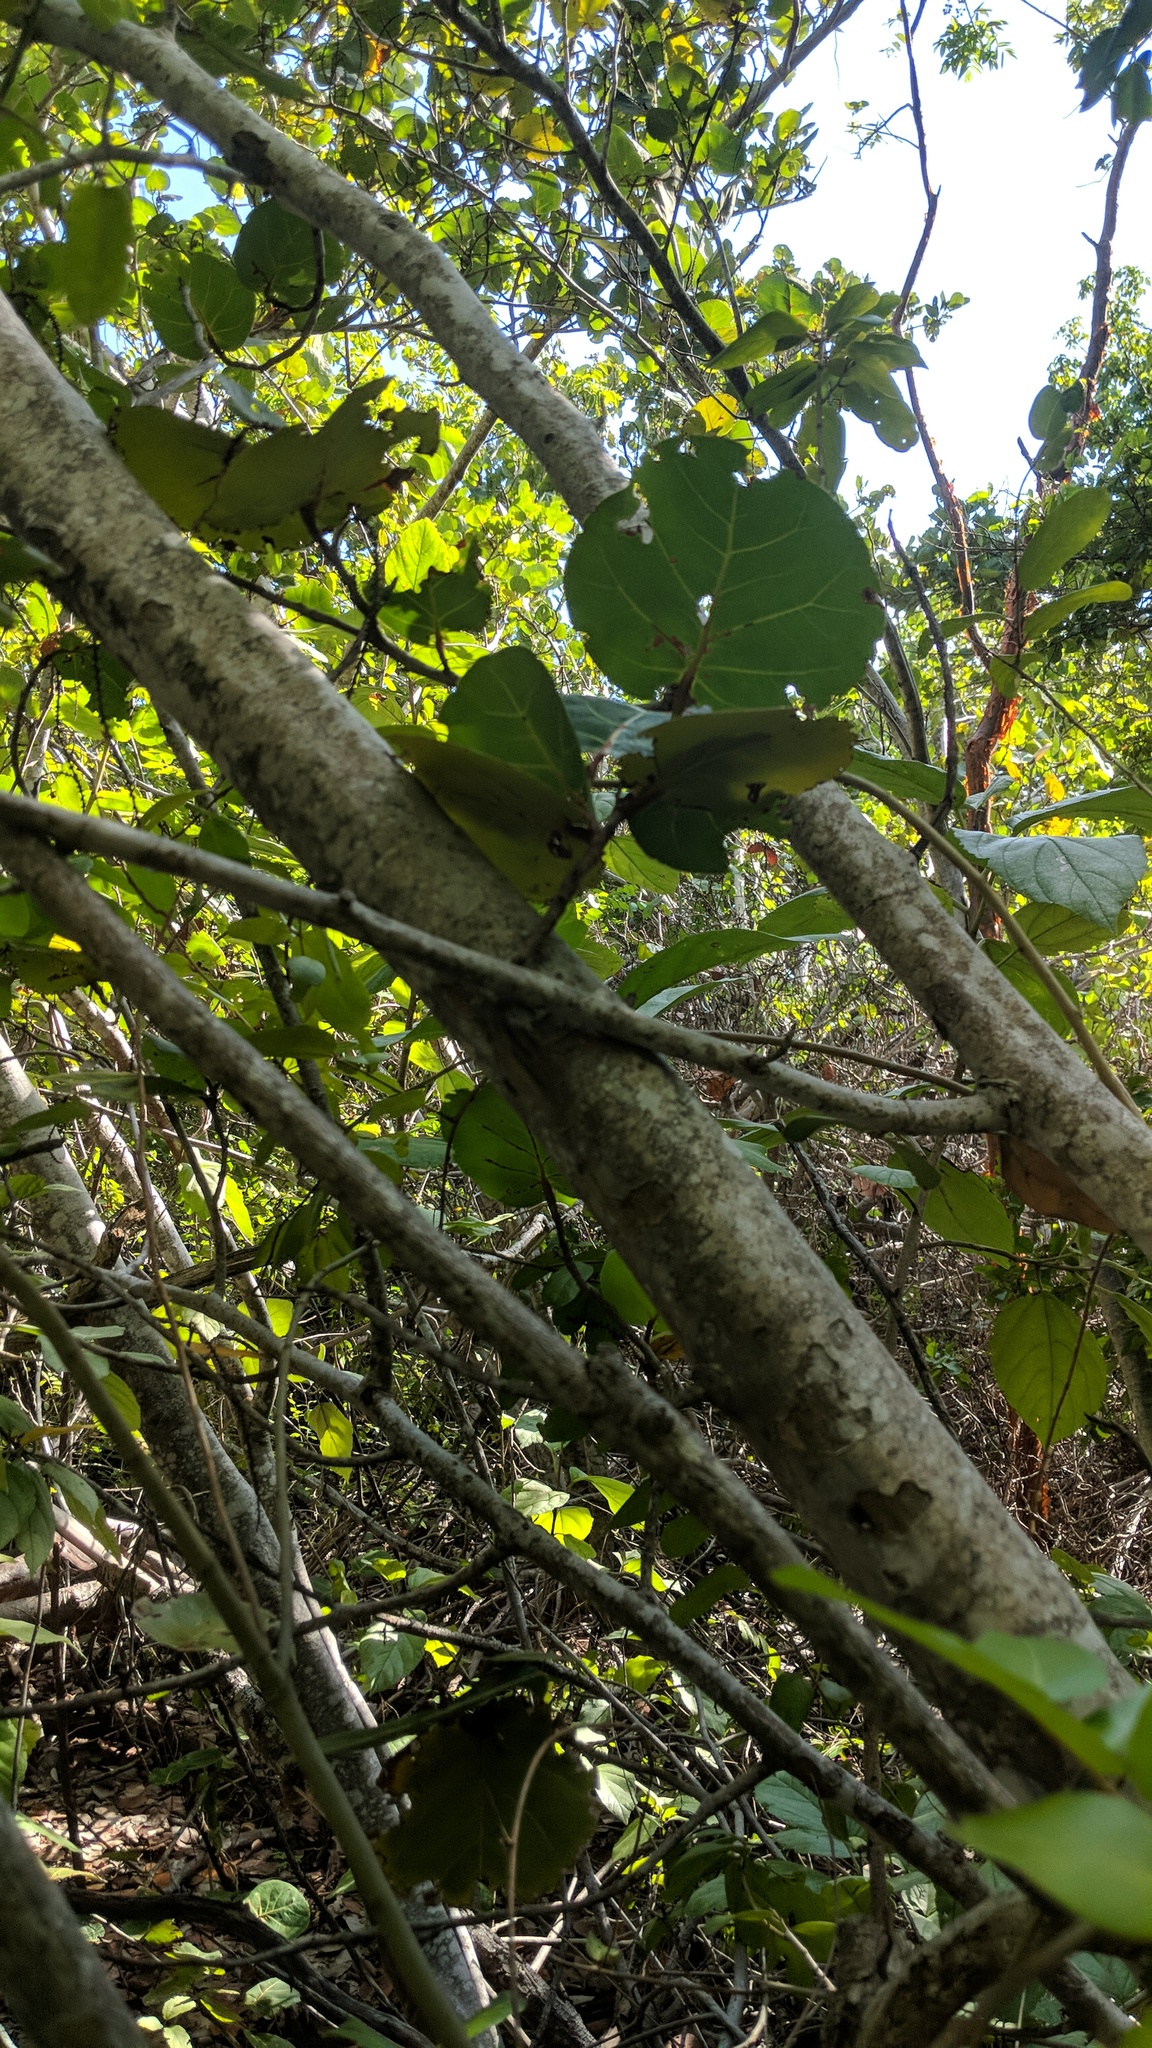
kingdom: Plantae
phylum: Tracheophyta
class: Magnoliopsida
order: Caryophyllales
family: Polygonaceae
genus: Coccoloba
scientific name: Coccoloba uvifera
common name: Seagrape
